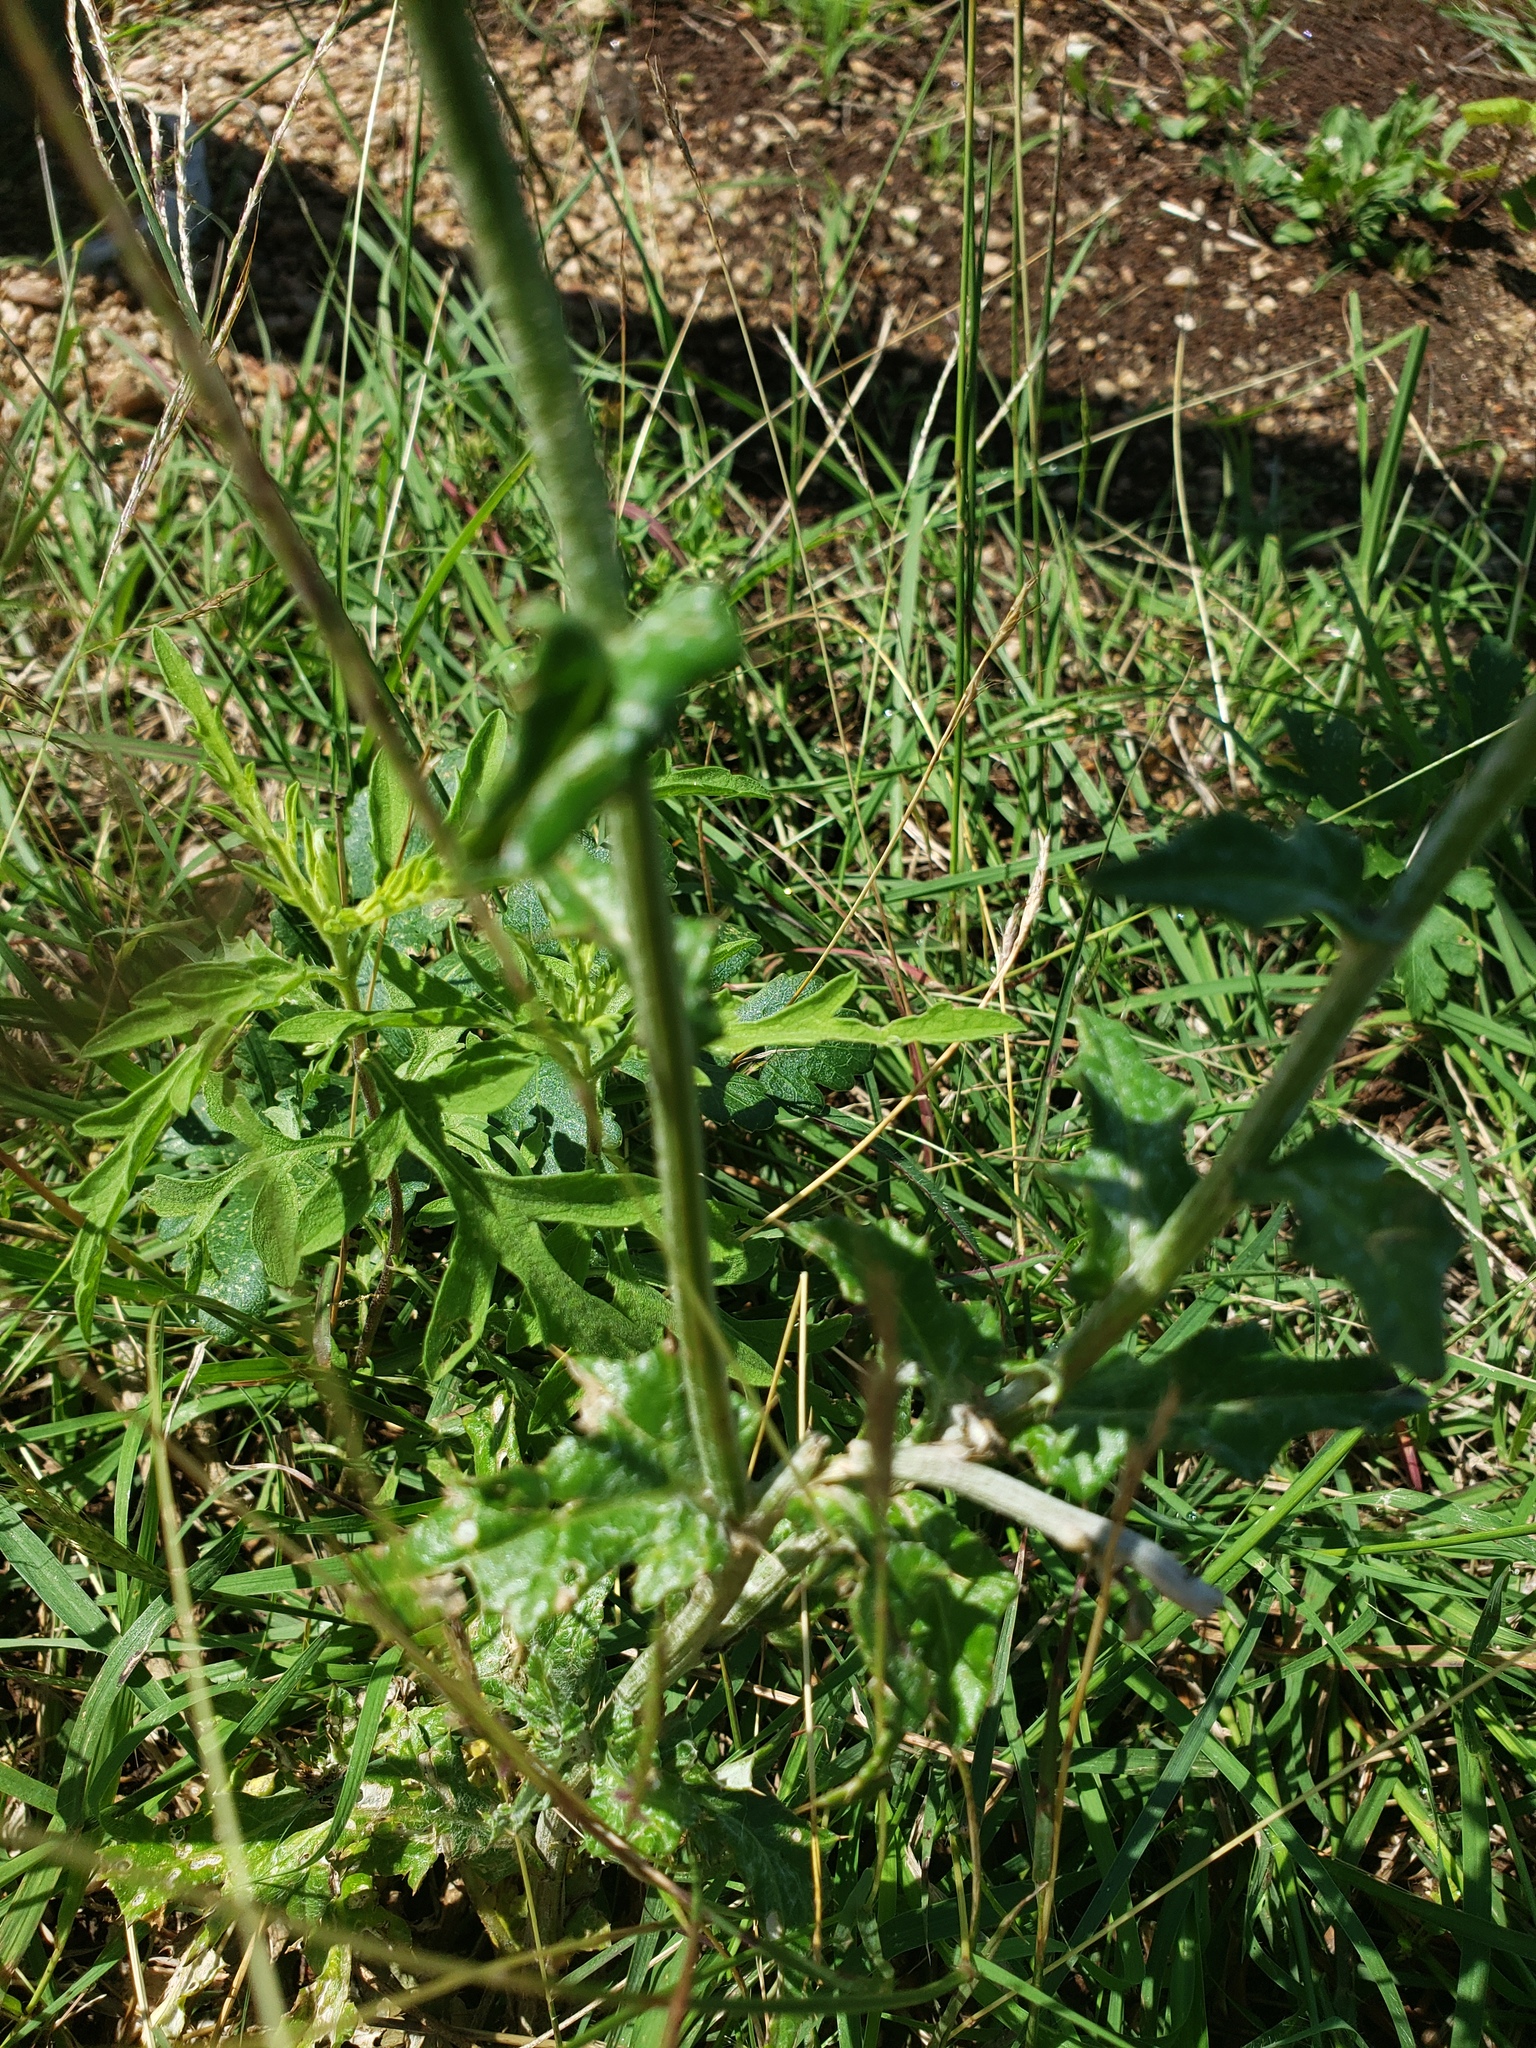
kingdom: Plantae
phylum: Tracheophyta
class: Magnoliopsida
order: Asterales
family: Asteraceae
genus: Cirsium
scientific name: Cirsium texanum
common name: Texas purple thistle
